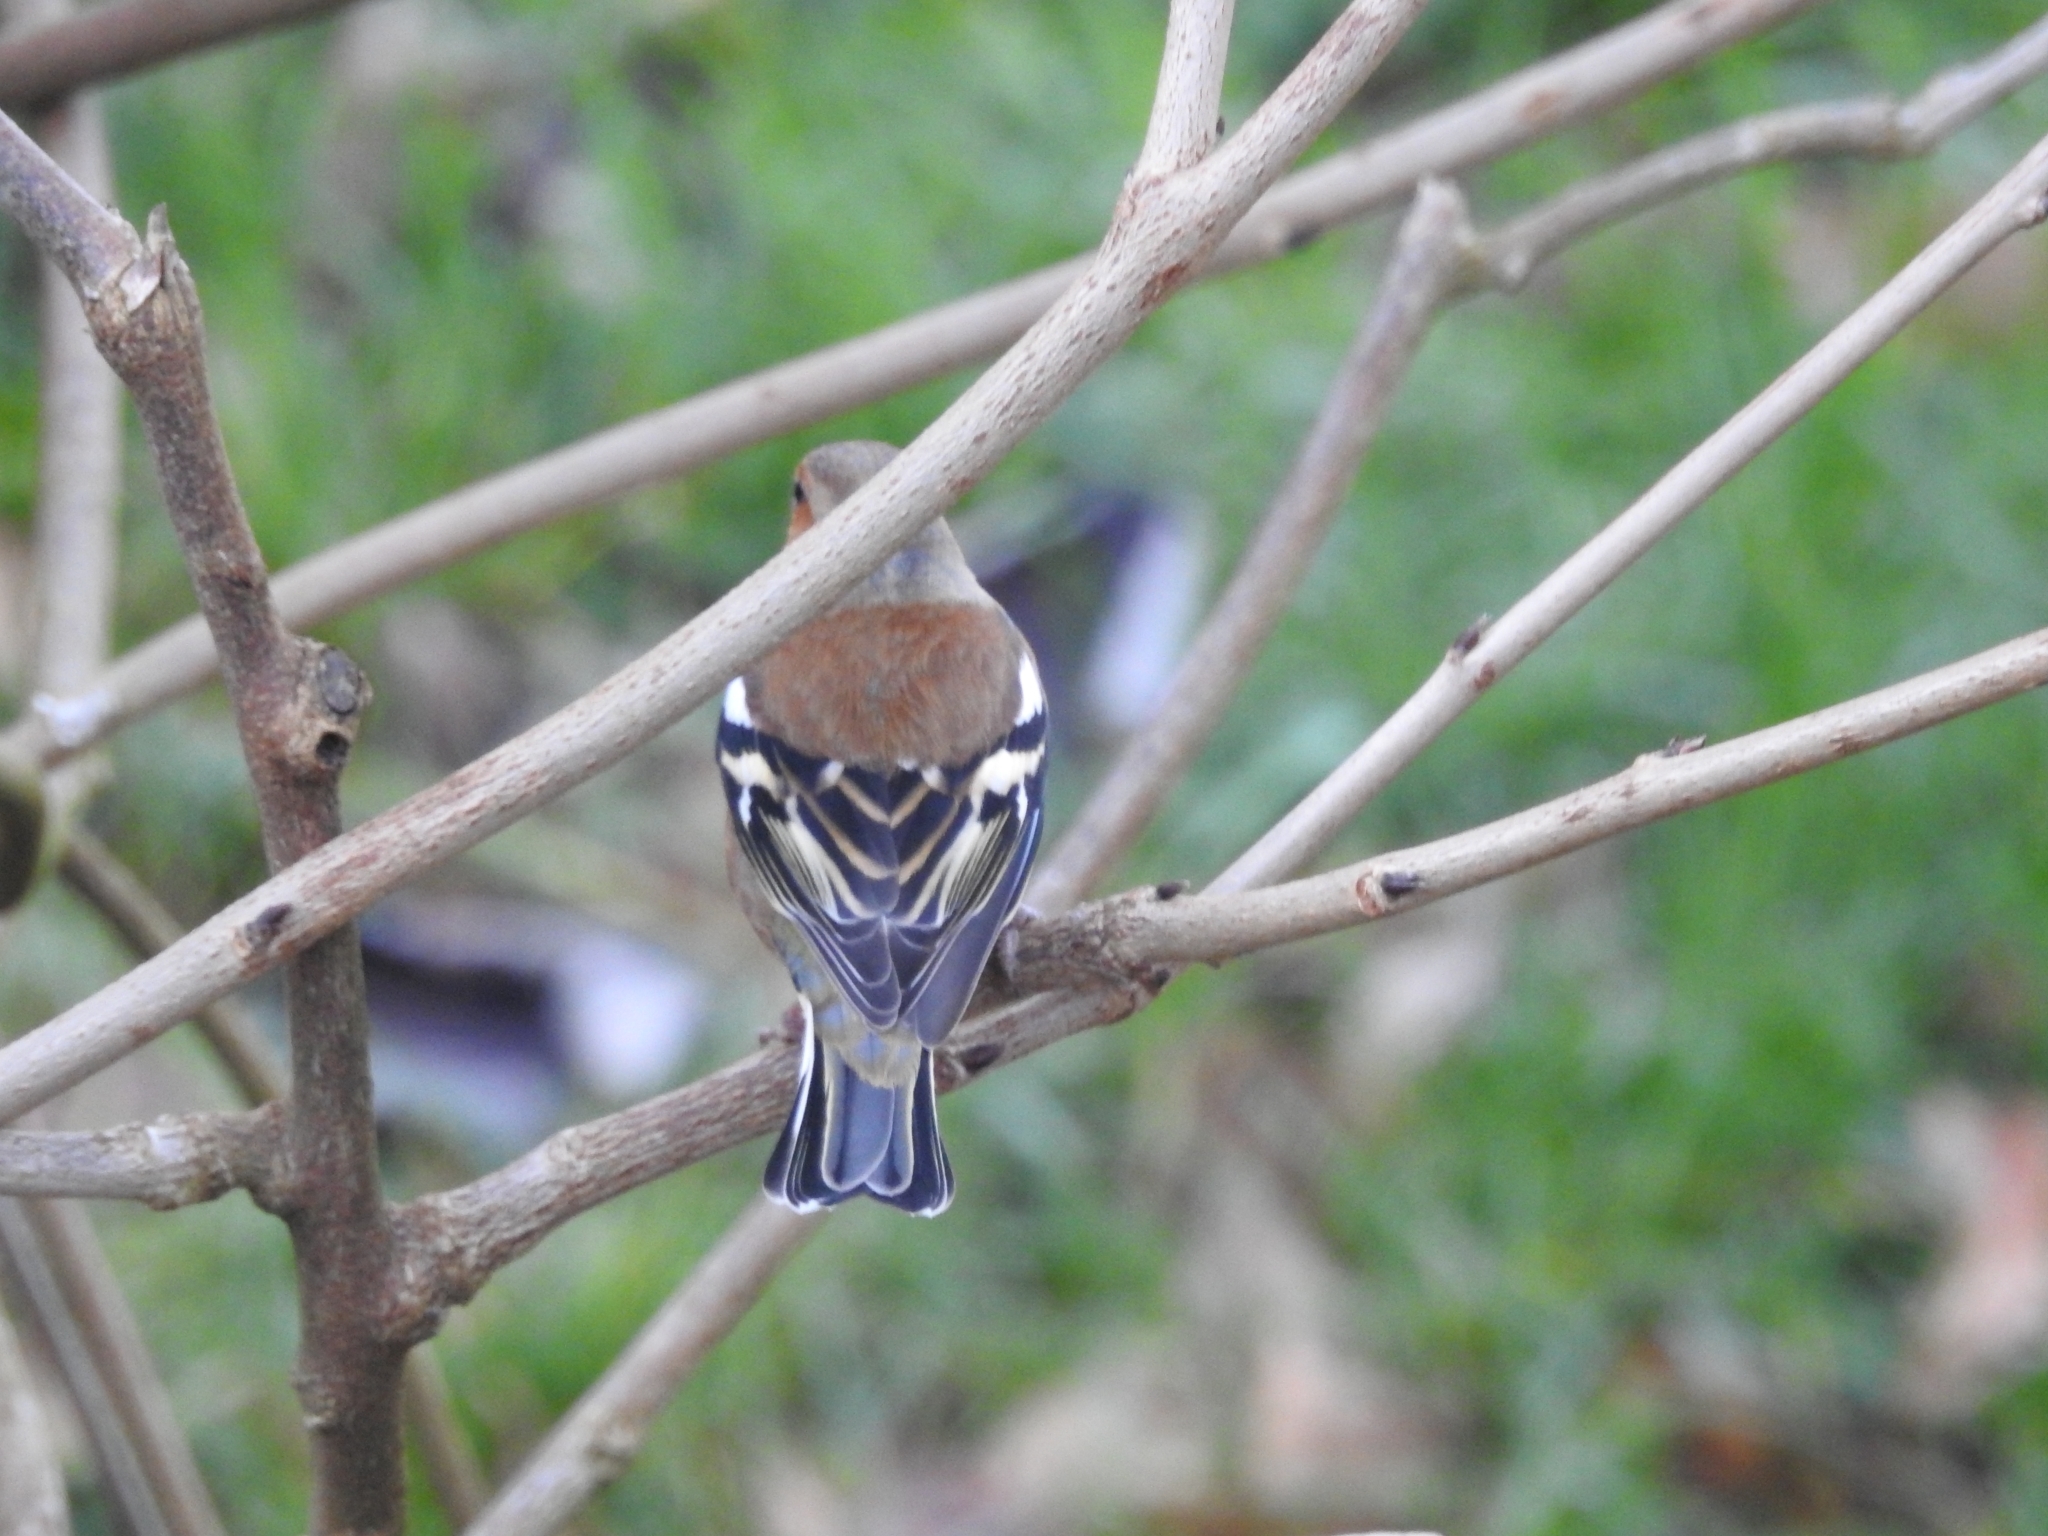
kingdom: Animalia
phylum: Chordata
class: Aves
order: Passeriformes
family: Fringillidae
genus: Fringilla
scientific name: Fringilla coelebs
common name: Common chaffinch
